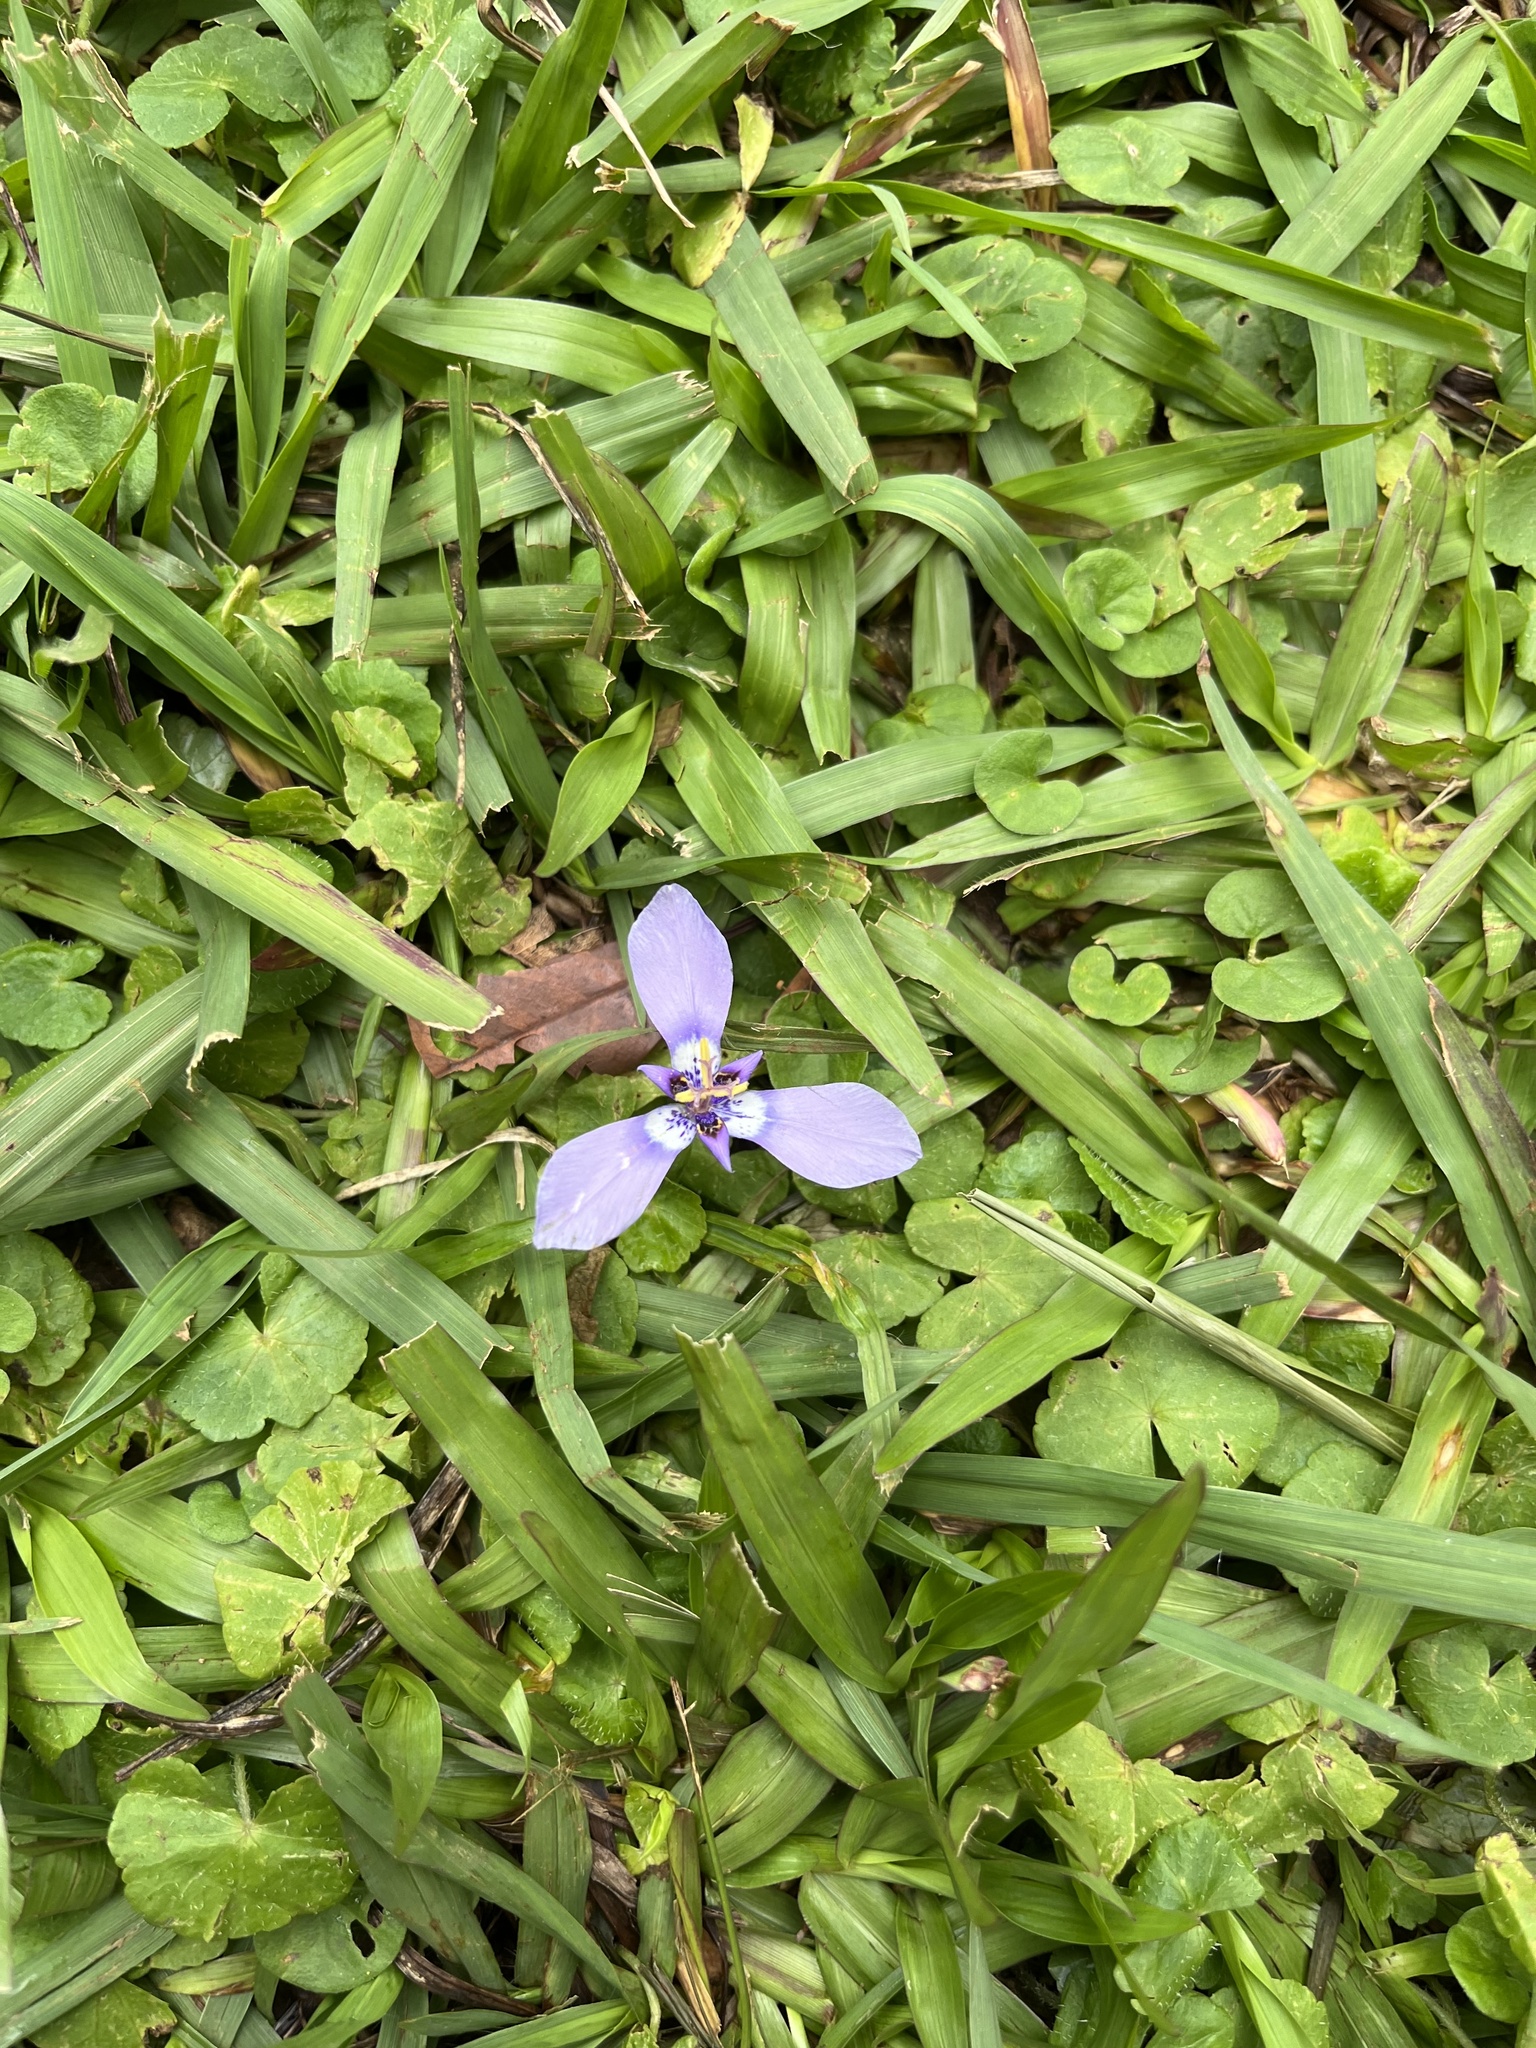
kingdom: Plantae
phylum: Tracheophyta
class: Liliopsida
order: Asparagales
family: Iridaceae
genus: Herbertia
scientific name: Herbertia lahue
